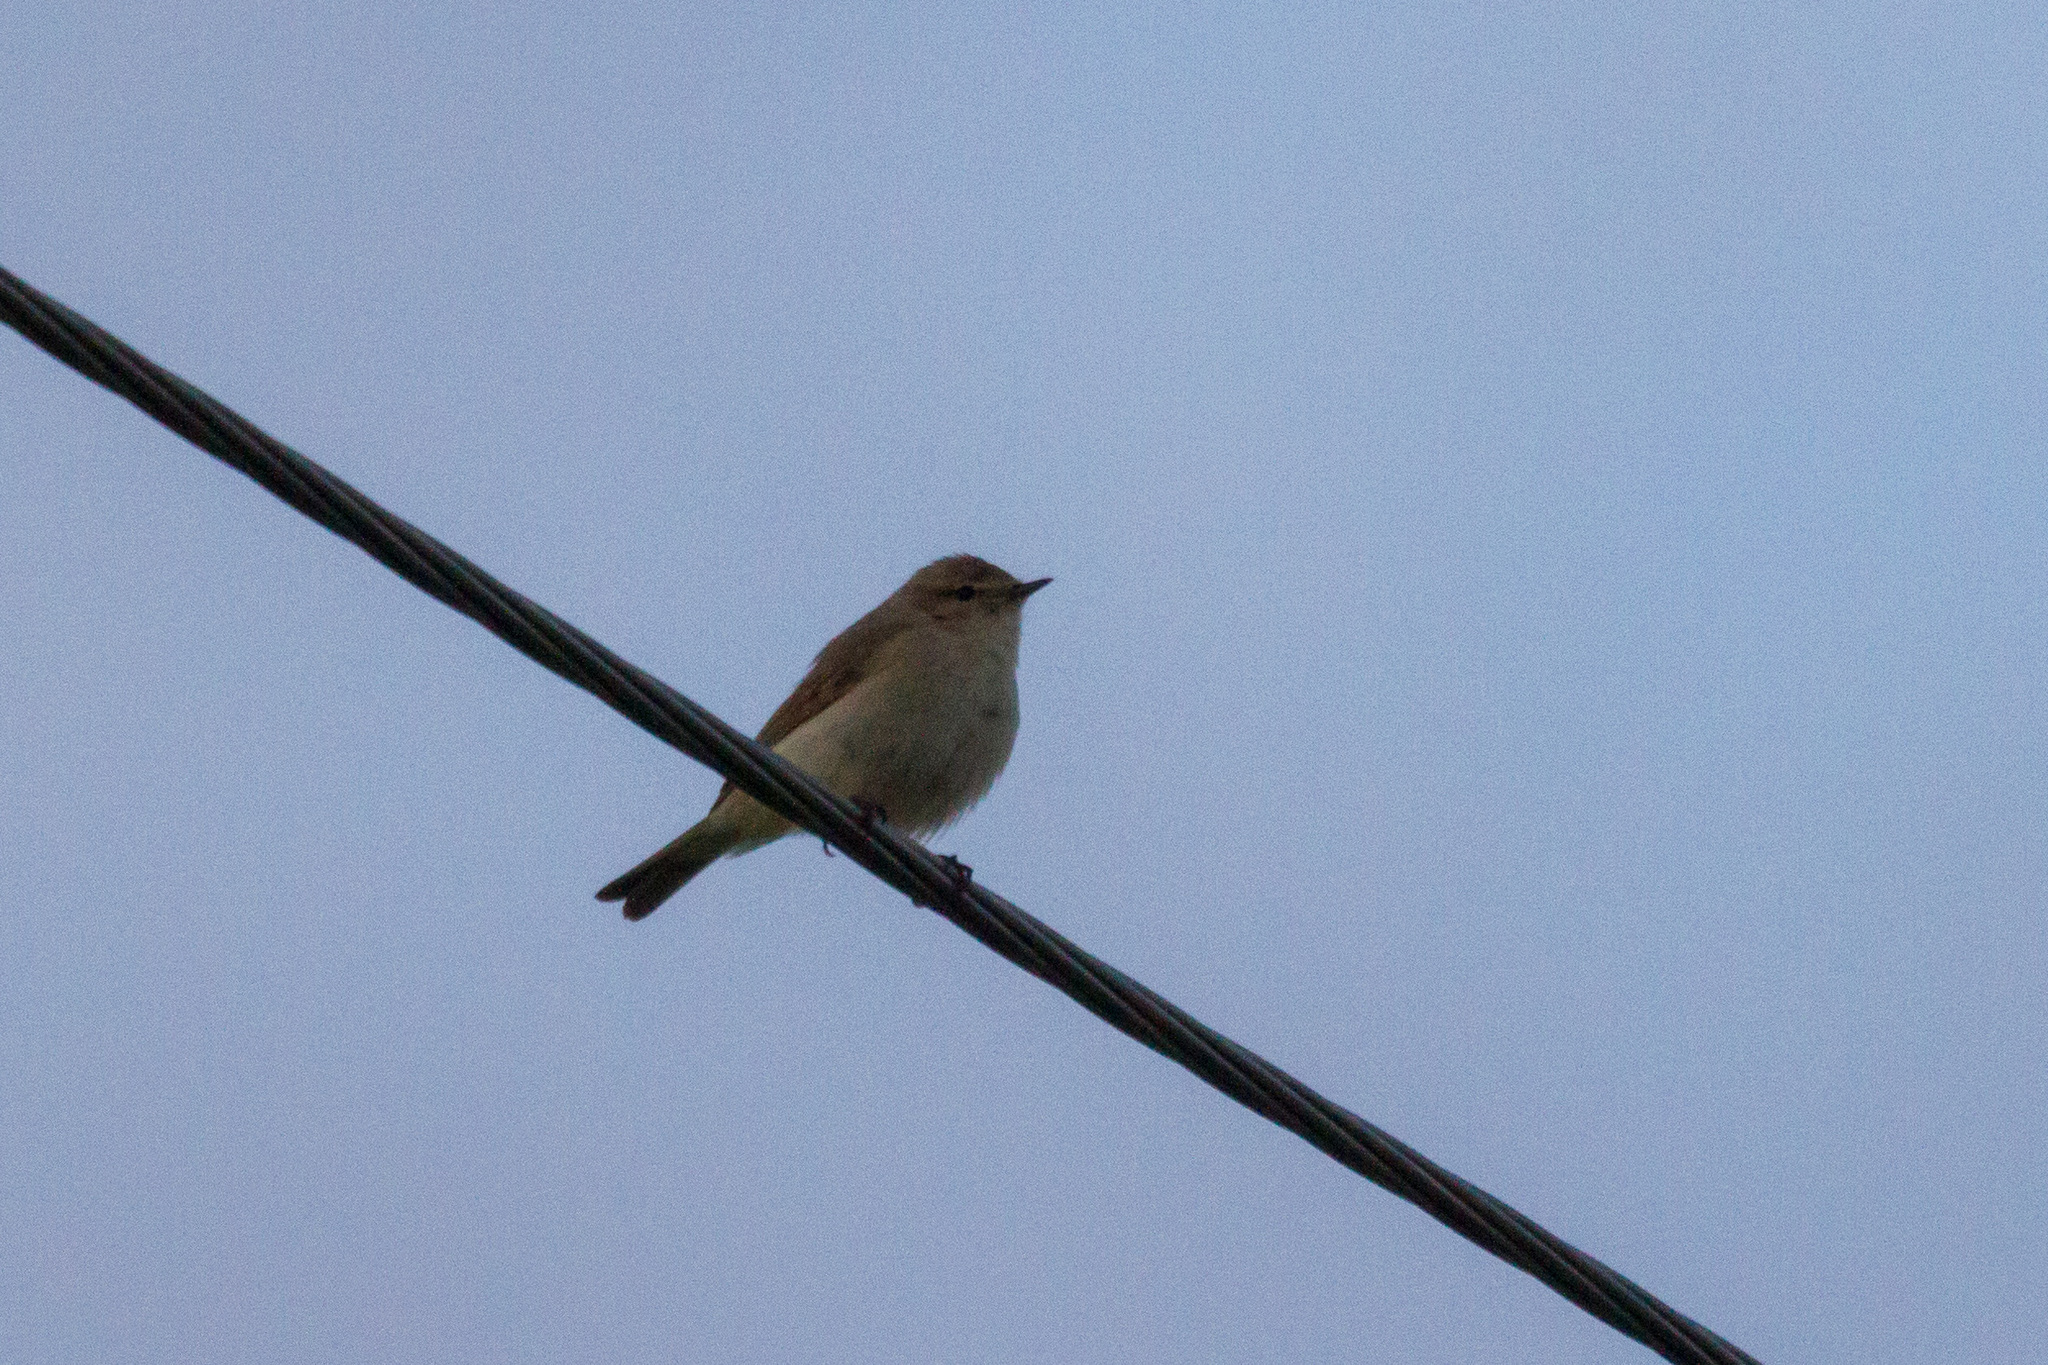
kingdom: Animalia
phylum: Chordata
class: Aves
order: Passeriformes
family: Phylloscopidae
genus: Phylloscopus
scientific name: Phylloscopus collybita
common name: Common chiffchaff
